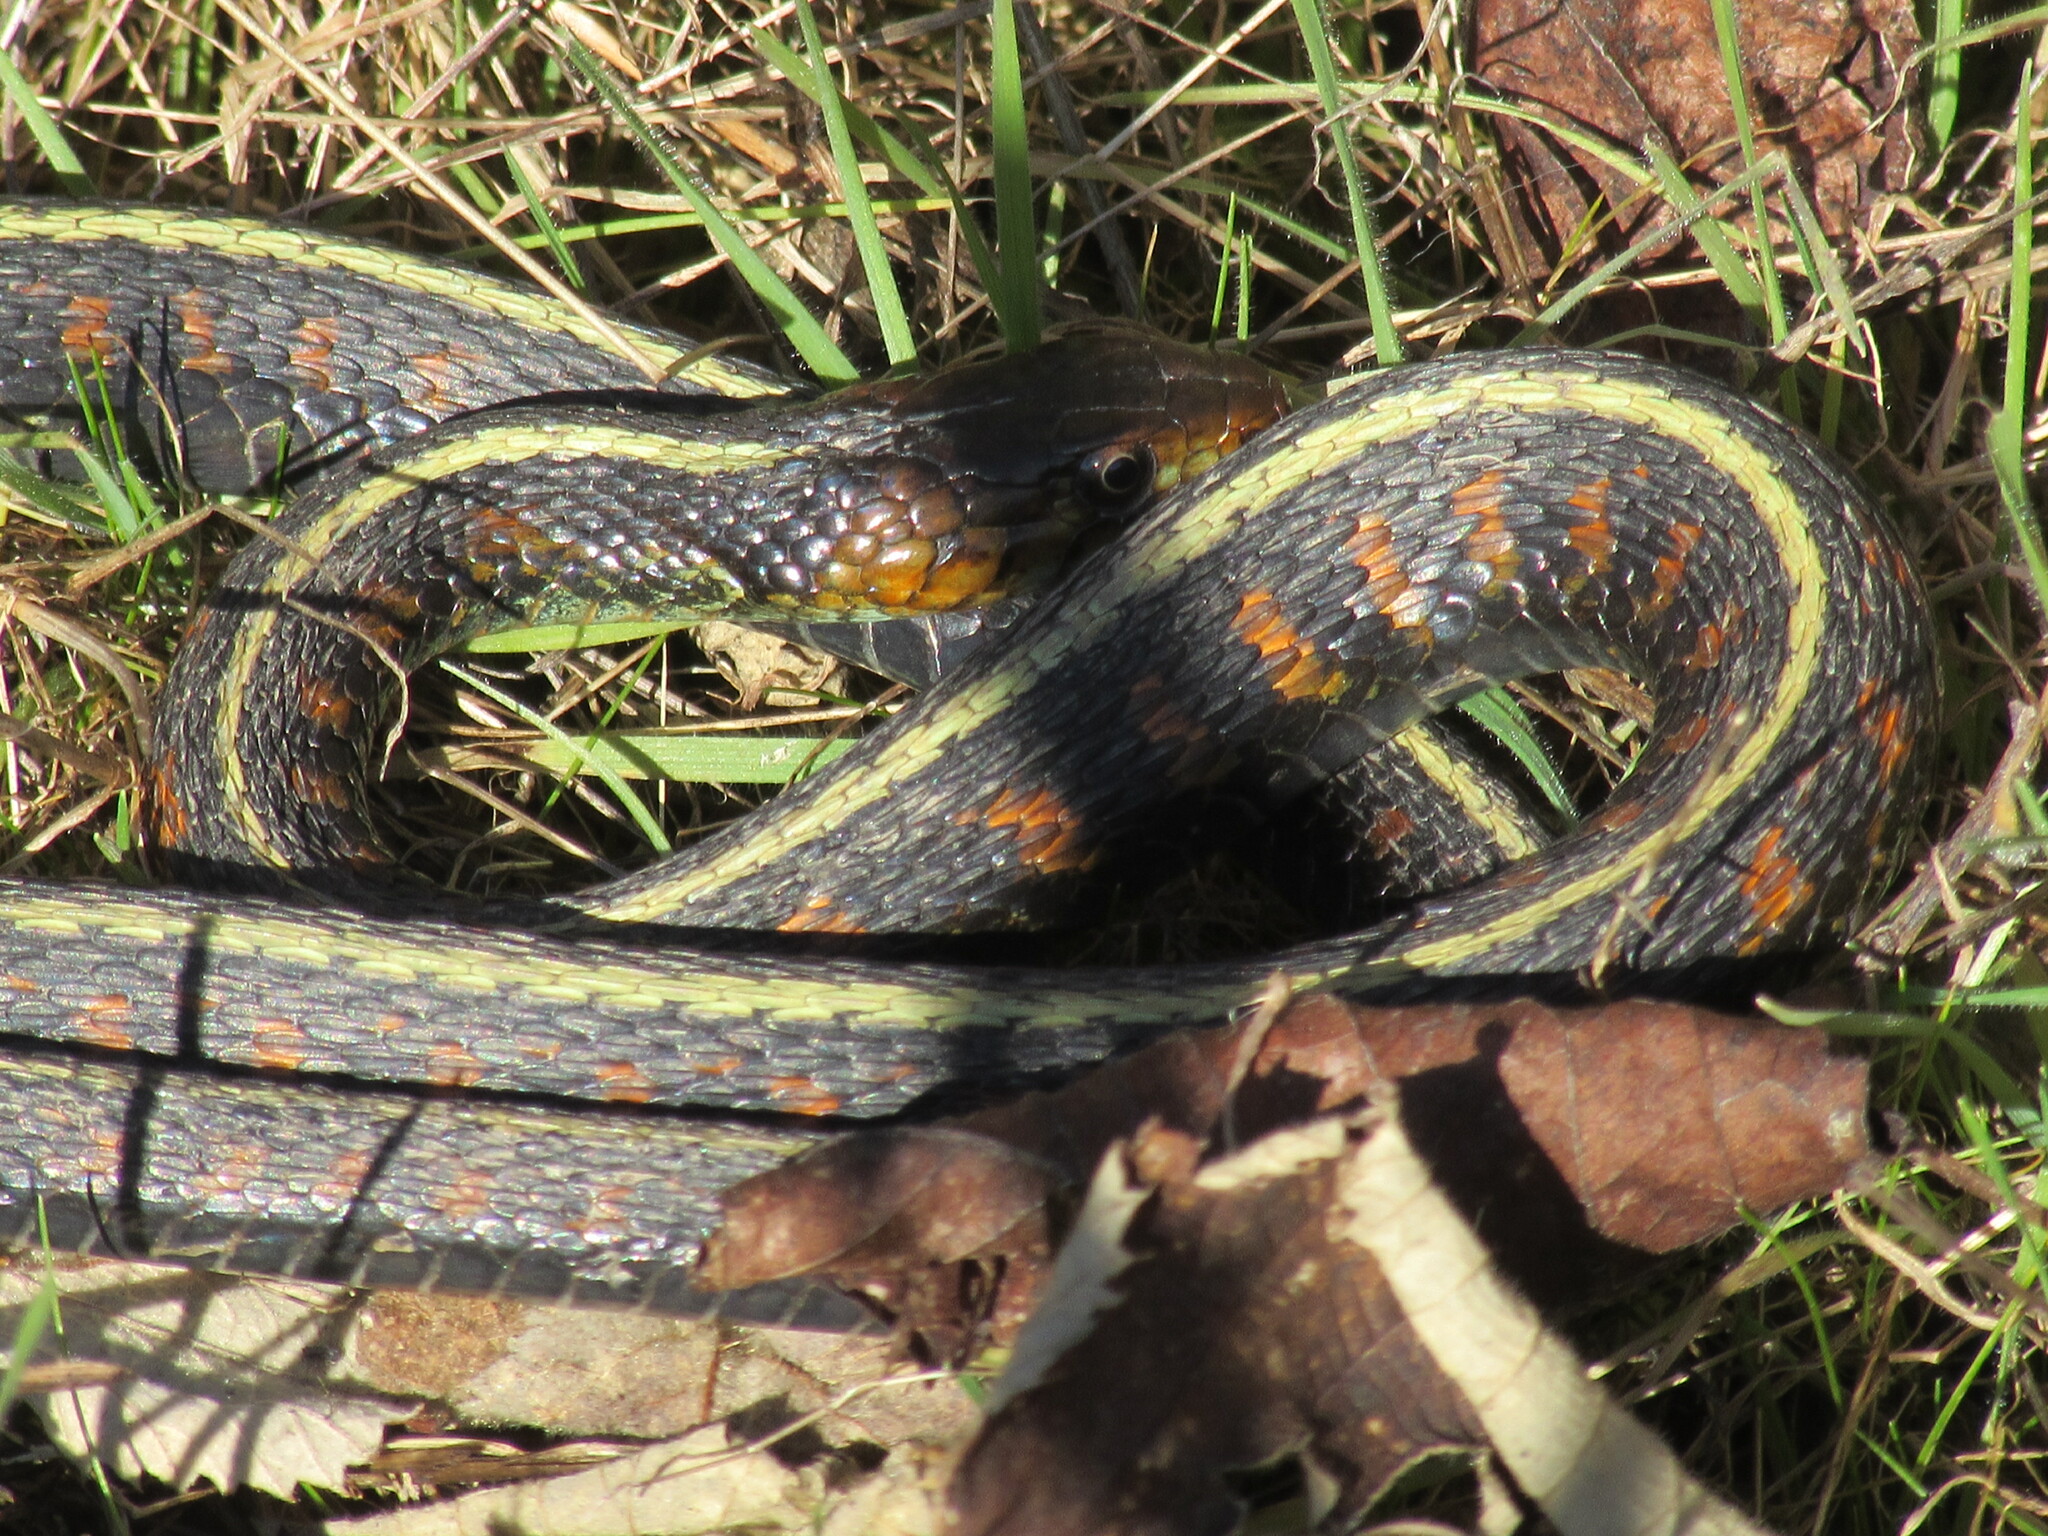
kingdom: Animalia
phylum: Chordata
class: Squamata
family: Colubridae
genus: Thamnophis
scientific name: Thamnophis sirtalis
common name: Common garter snake
